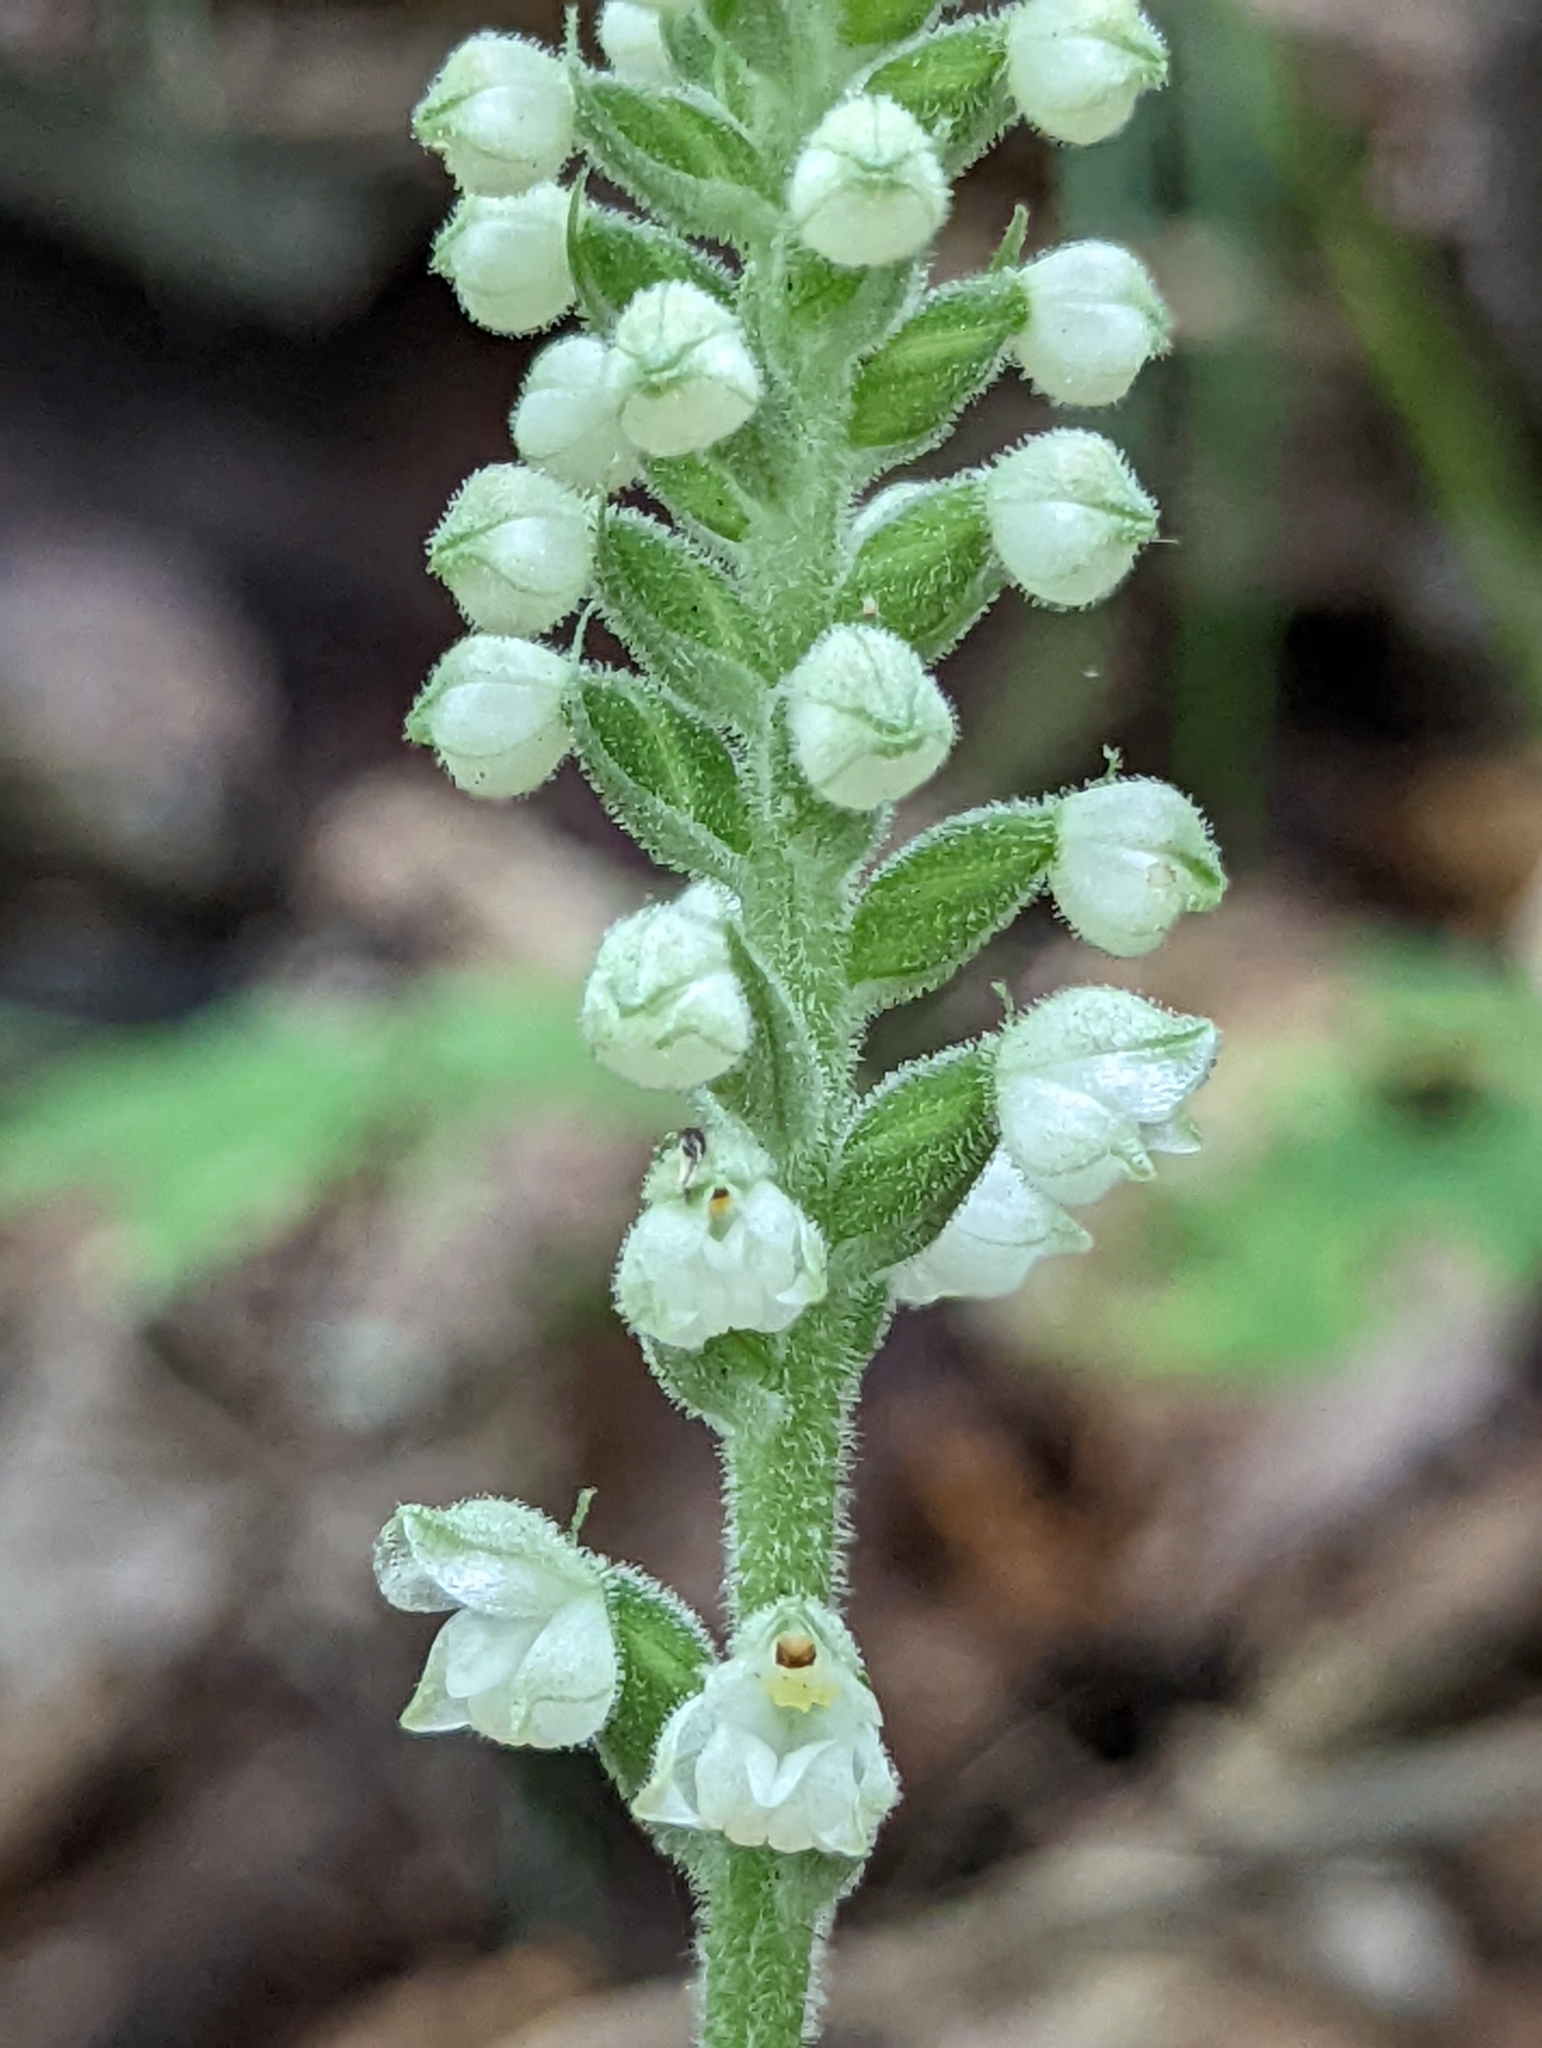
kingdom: Plantae
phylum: Tracheophyta
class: Liliopsida
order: Asparagales
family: Orchidaceae
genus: Goodyera
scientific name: Goodyera pubescens
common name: Downy rattlesnake-plantain
